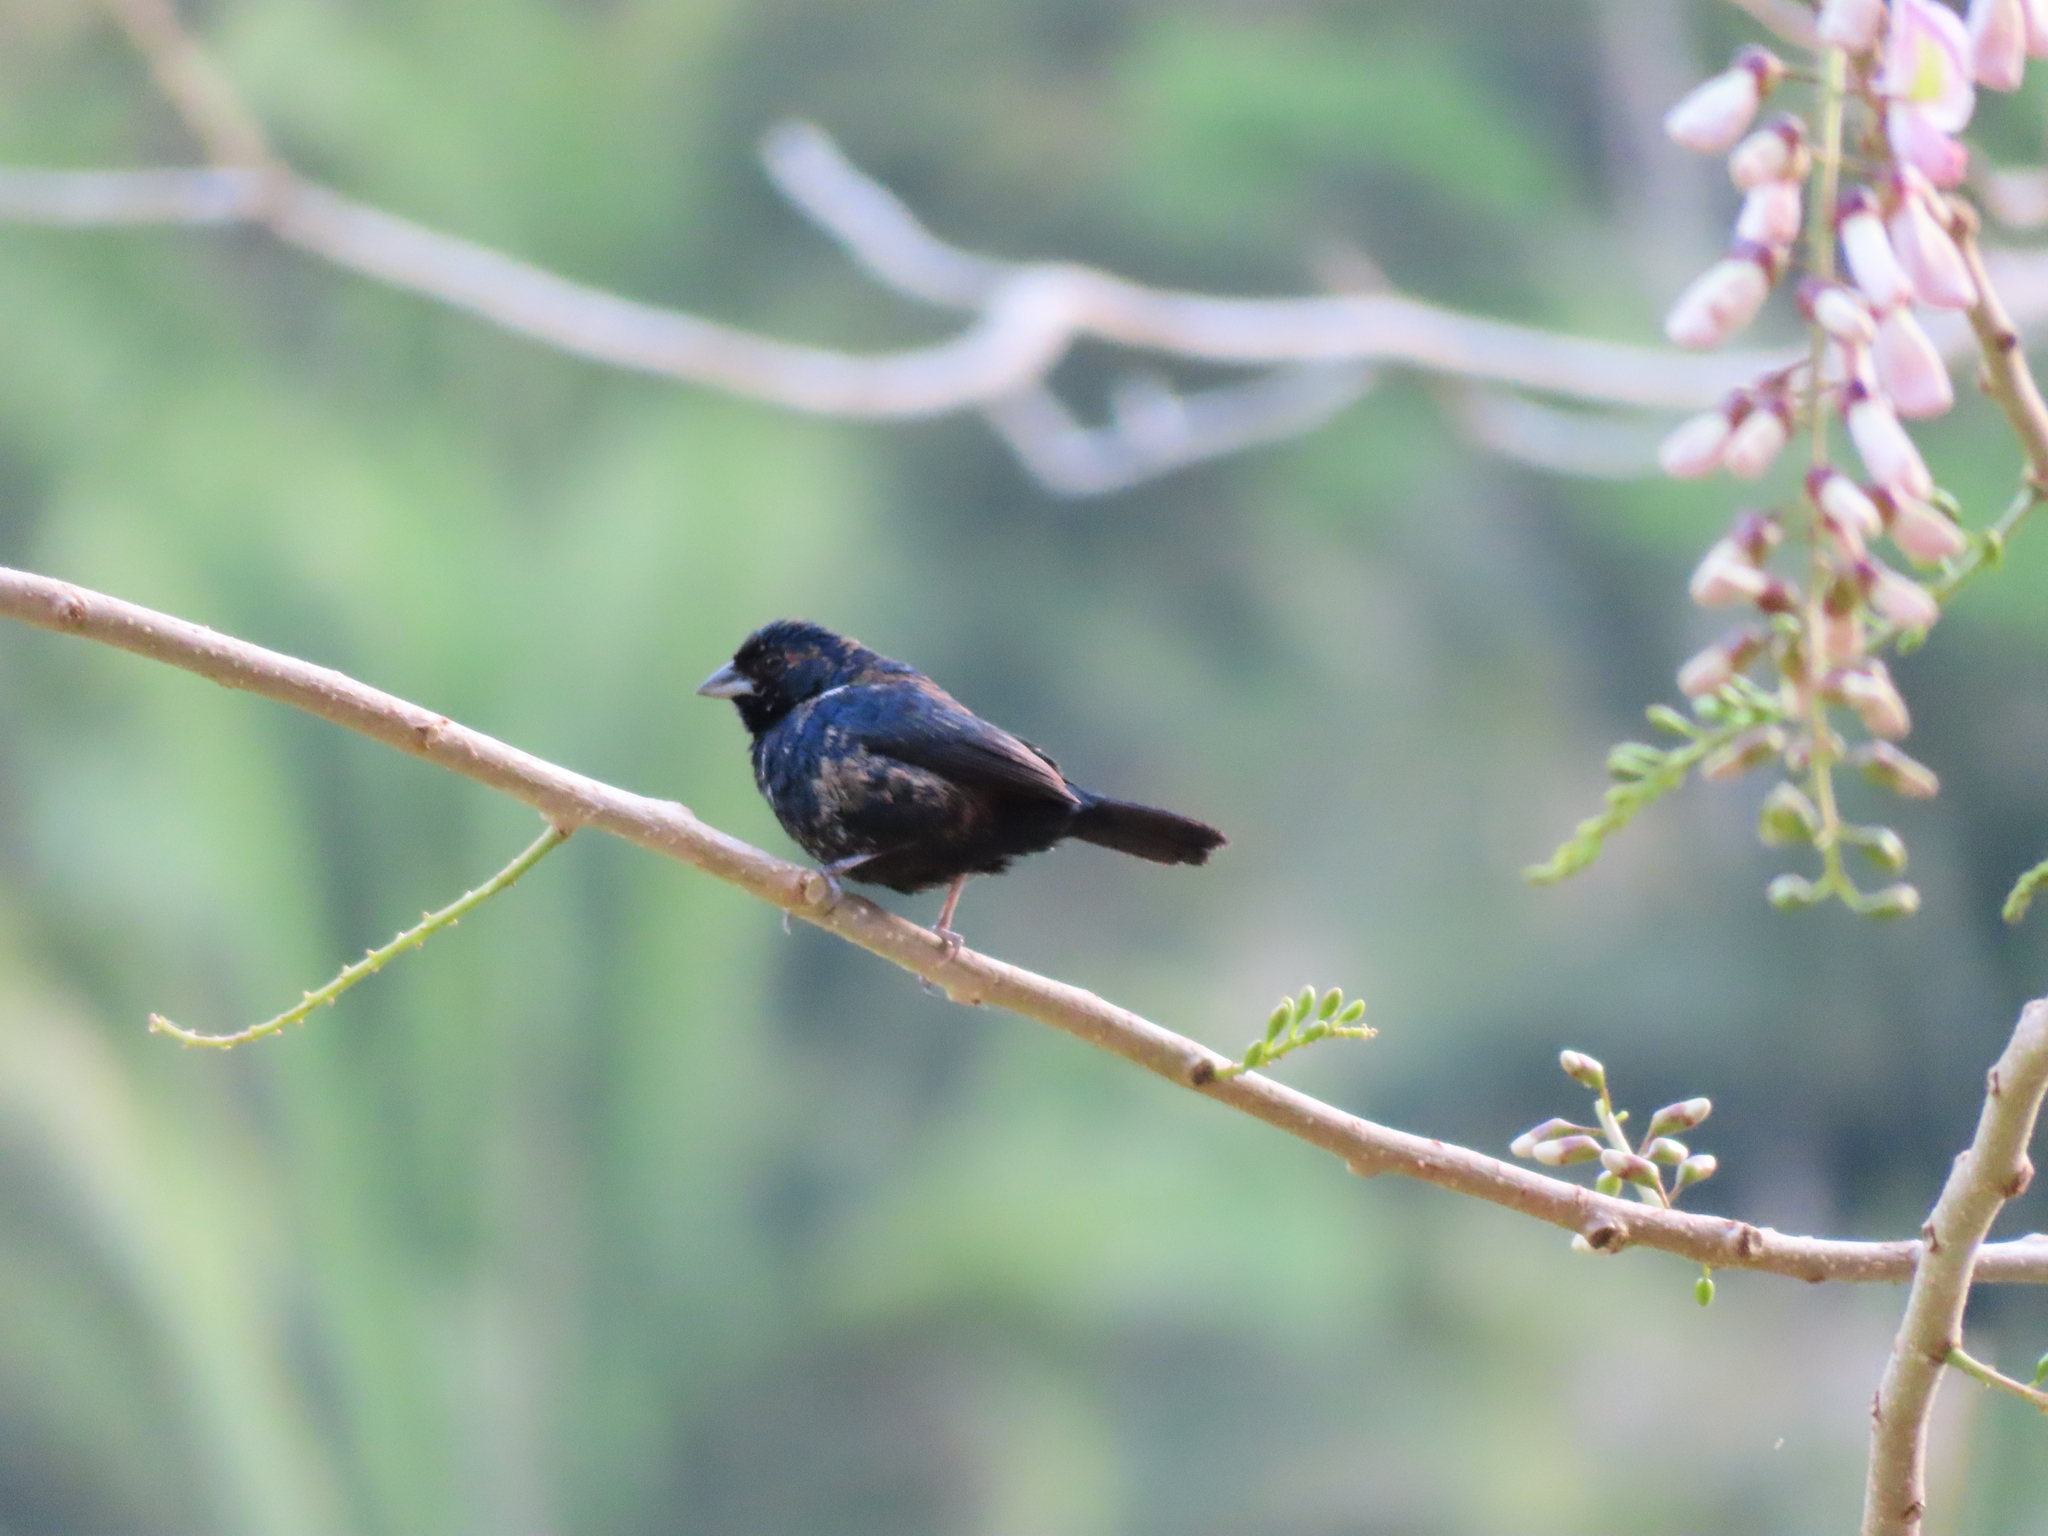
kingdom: Animalia
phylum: Chordata
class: Aves
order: Passeriformes
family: Thraupidae
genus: Volatinia
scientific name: Volatinia jacarina
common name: Blue-black grassquit
